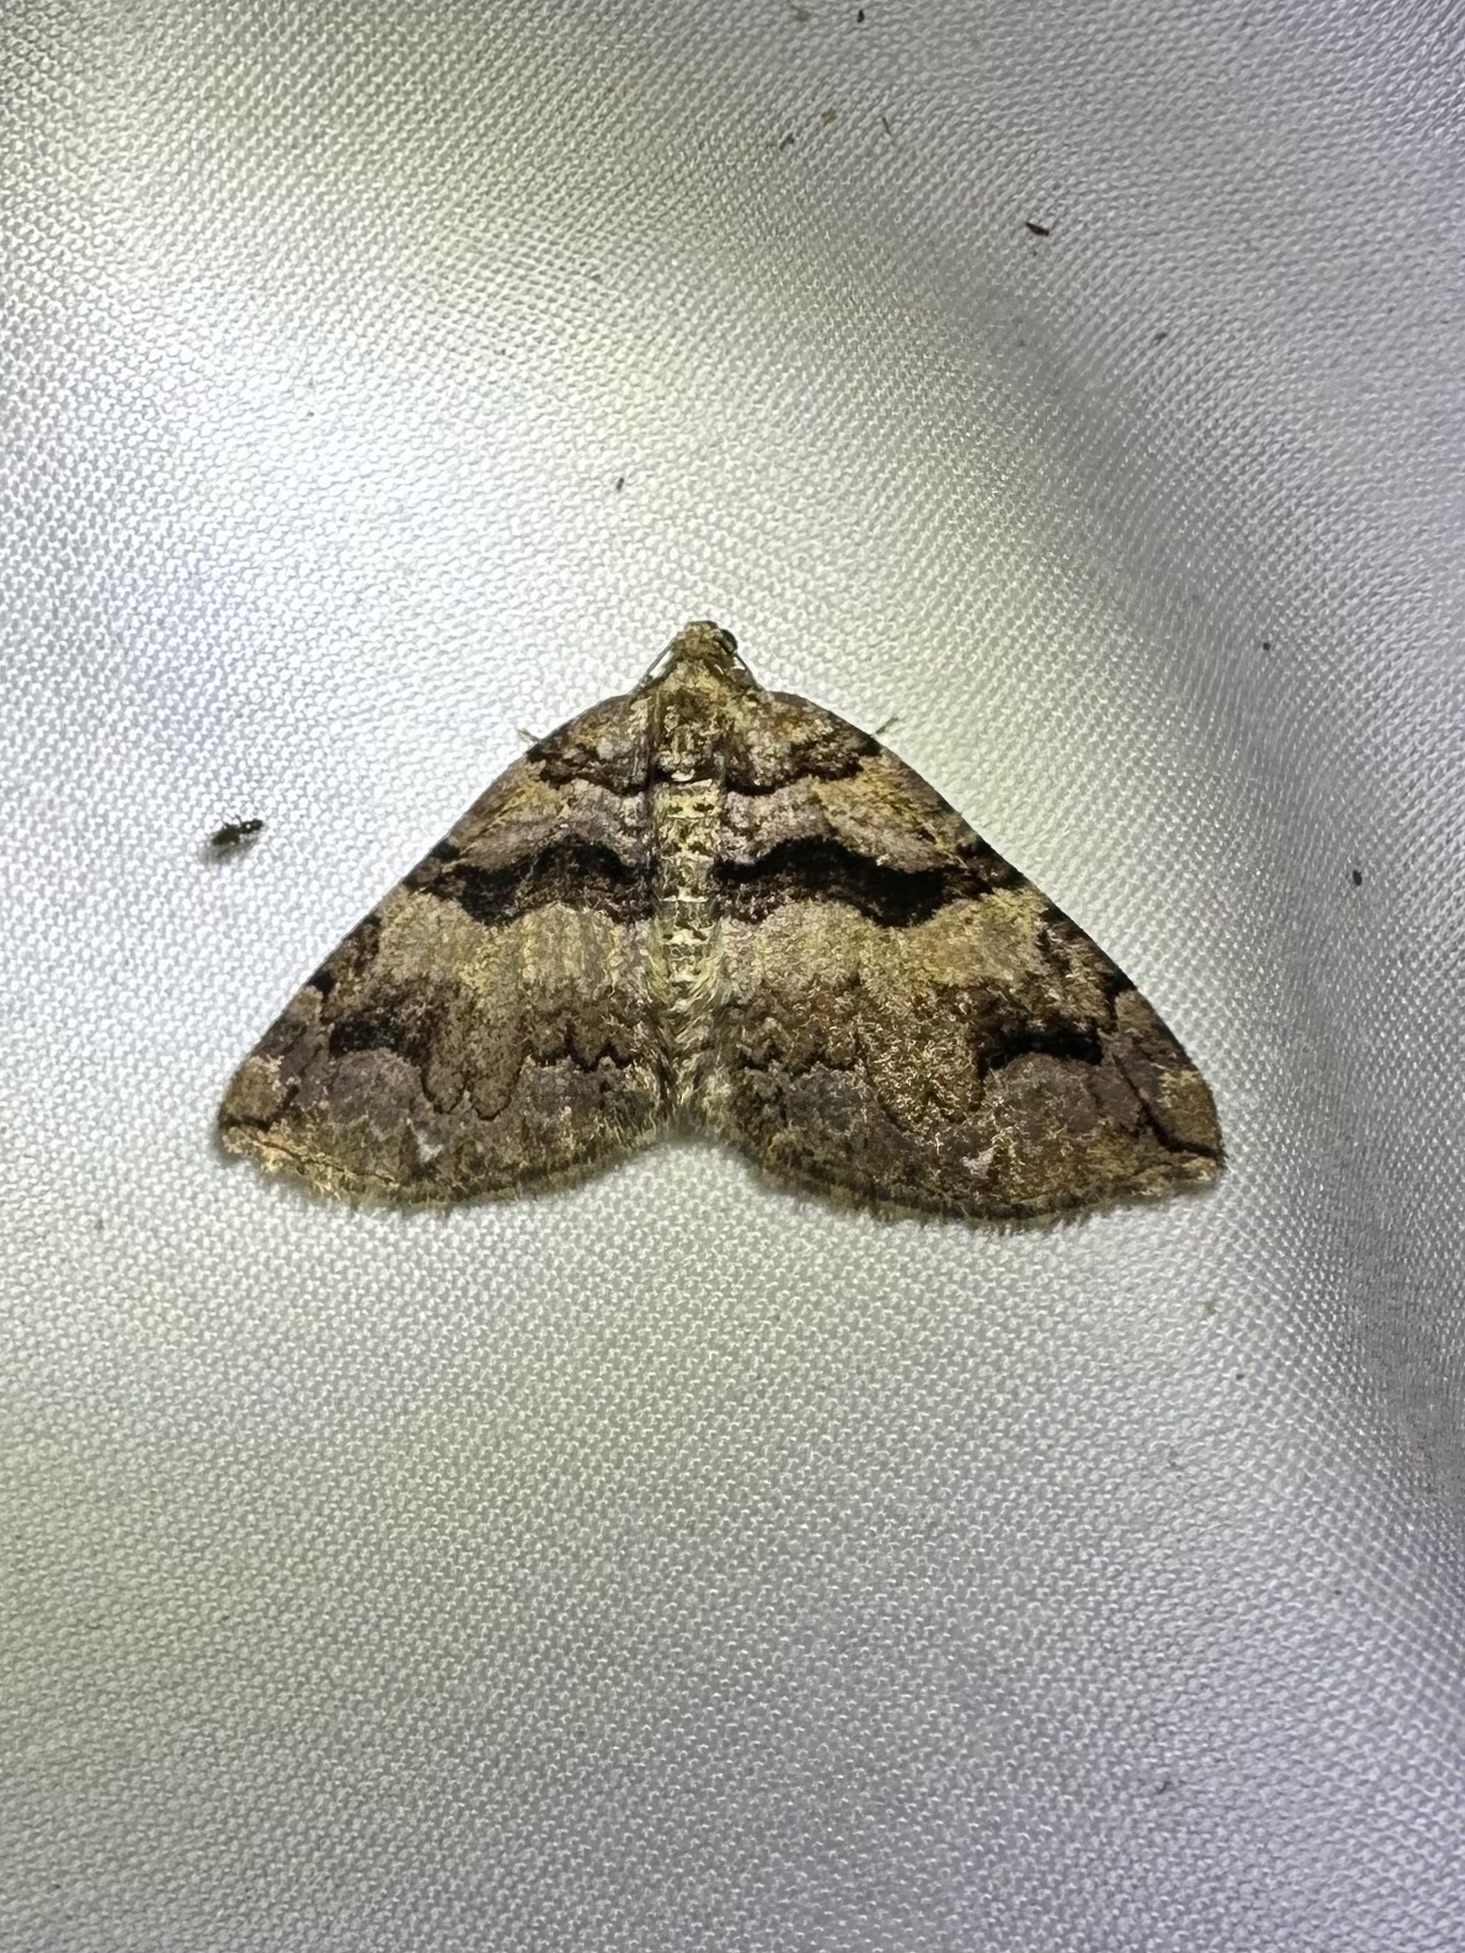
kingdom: Animalia
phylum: Arthropoda
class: Insecta
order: Lepidoptera
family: Geometridae
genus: Anticlea
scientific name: Anticlea vasiliata
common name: Variable carpet
